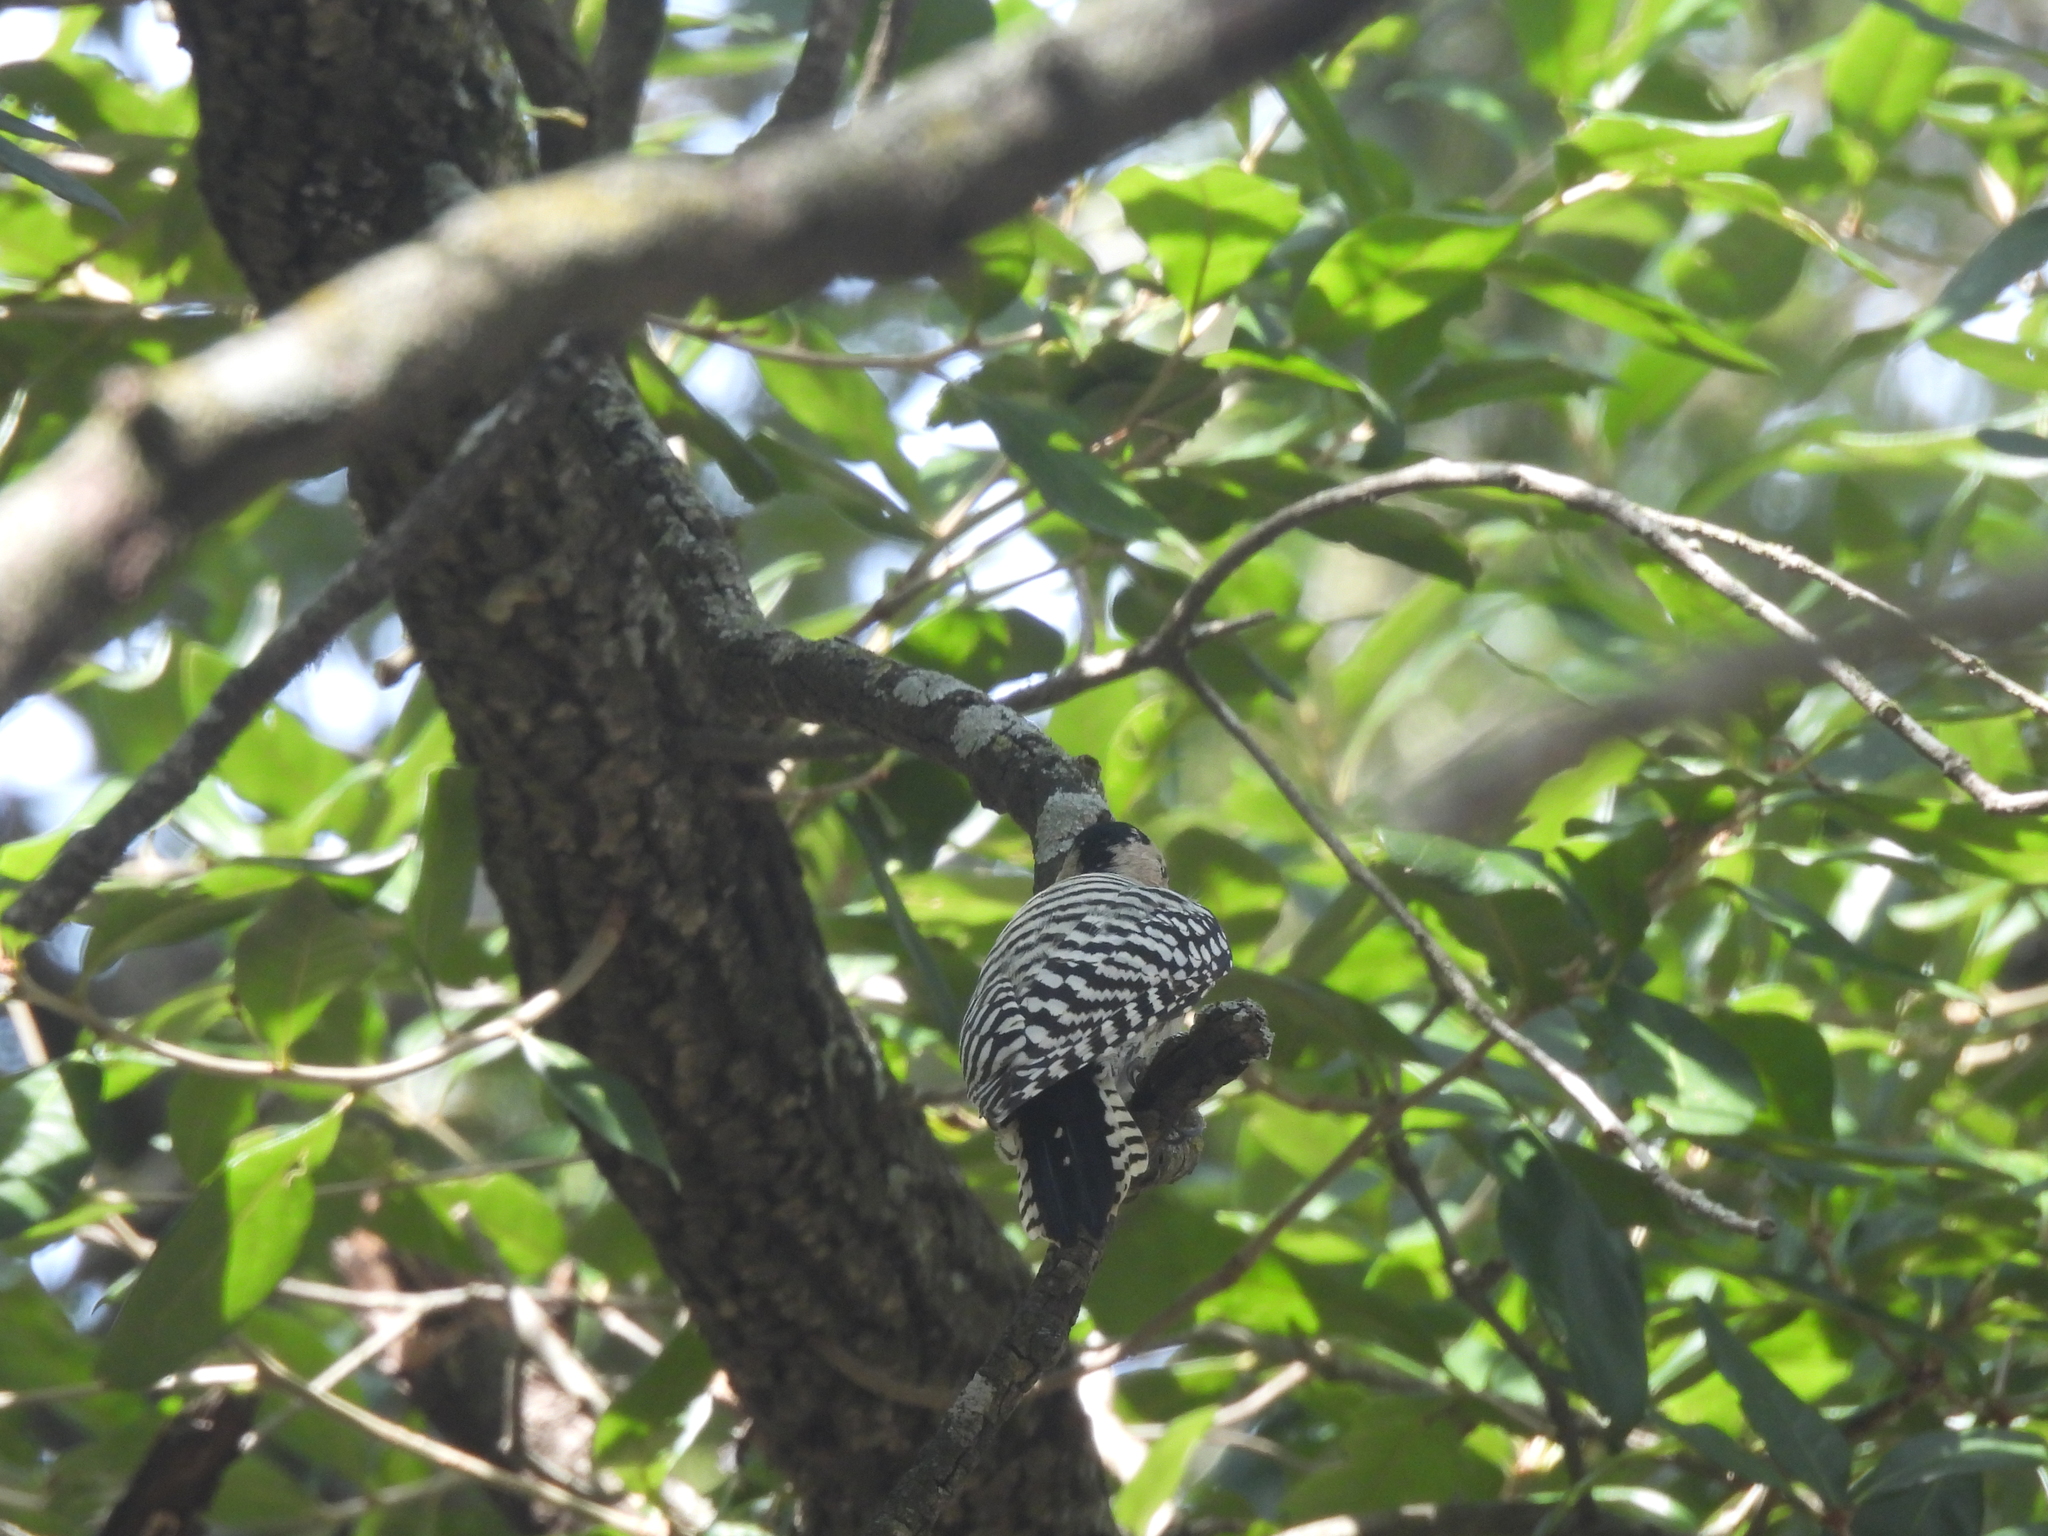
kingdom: Animalia
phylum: Chordata
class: Aves
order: Piciformes
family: Picidae
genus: Dryobates
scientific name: Dryobates scalaris
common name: Ladder-backed woodpecker
